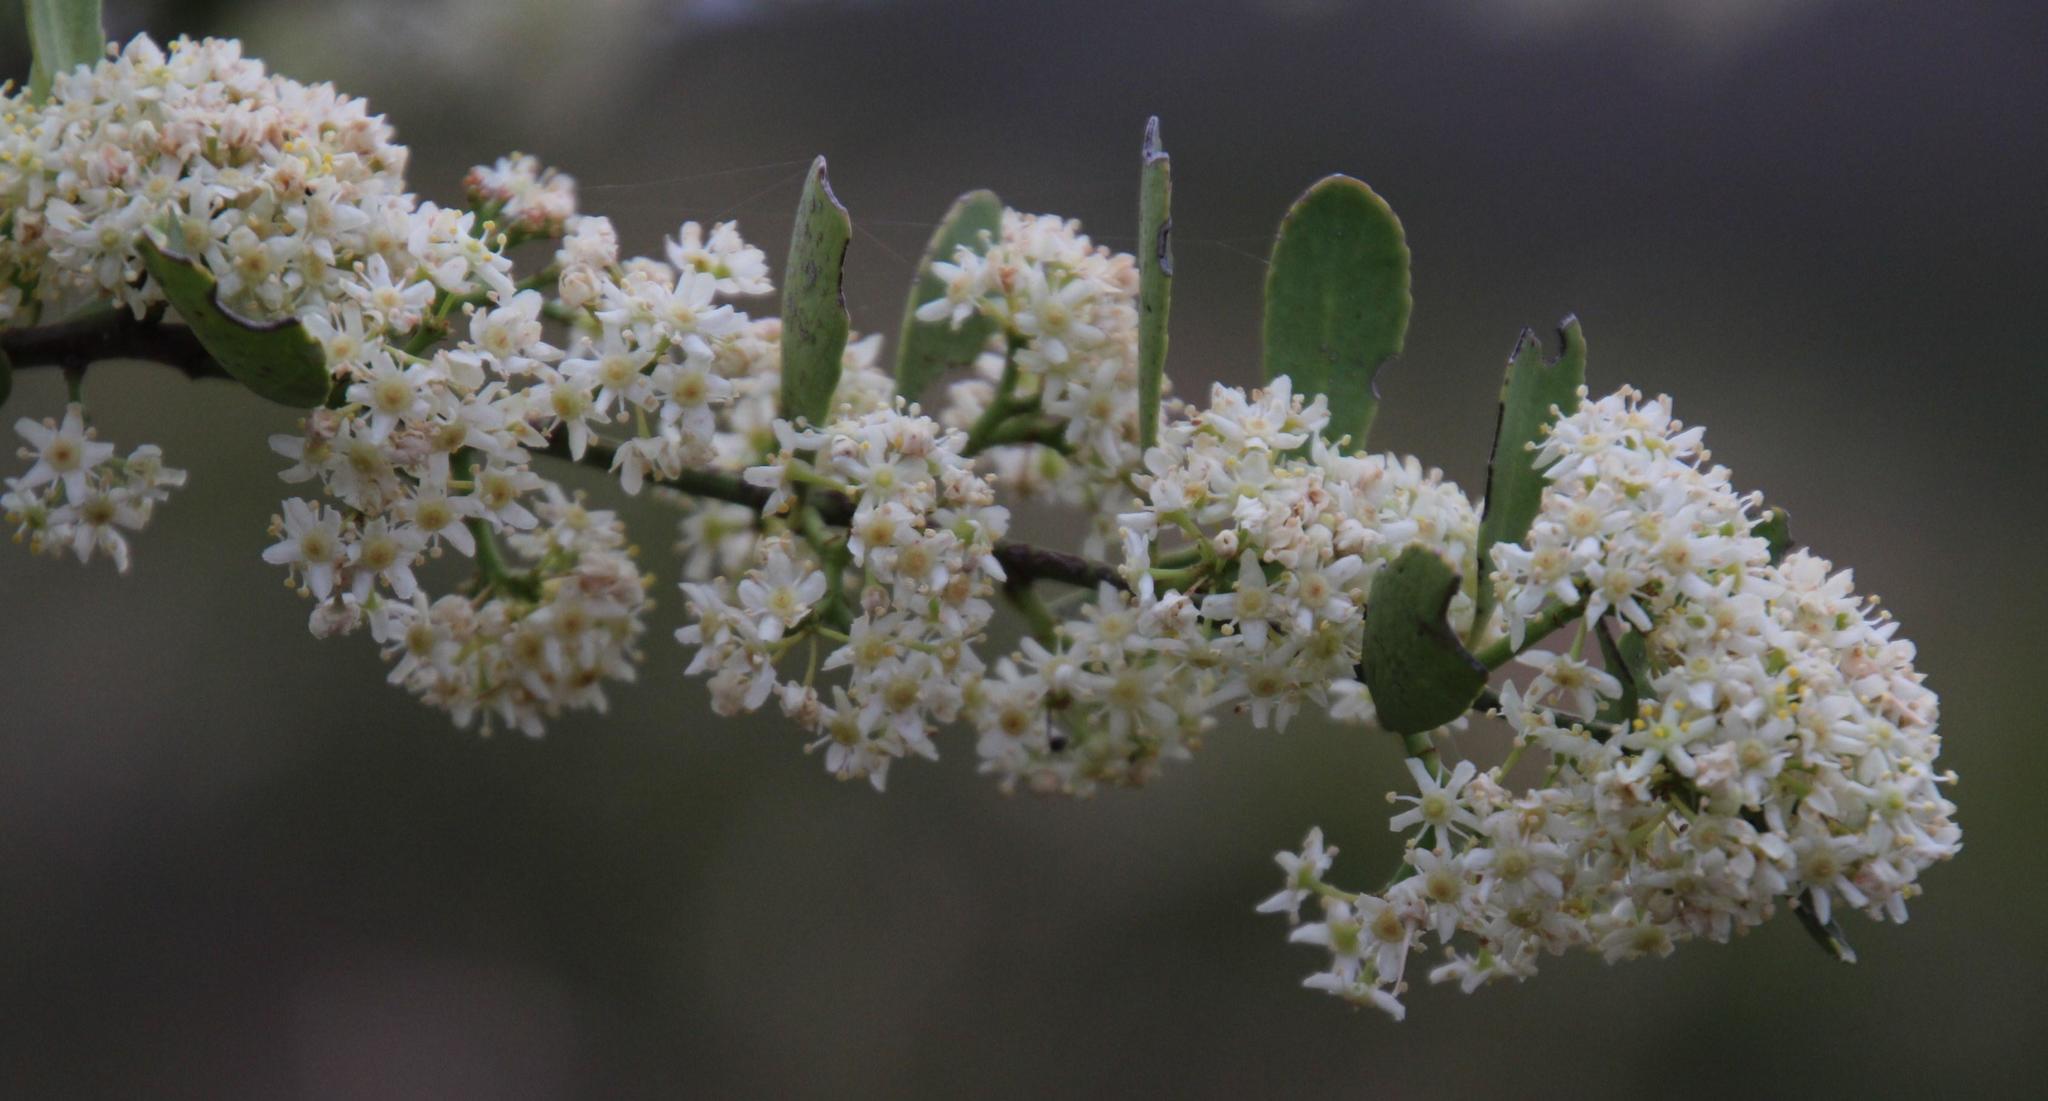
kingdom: Plantae
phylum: Tracheophyta
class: Magnoliopsida
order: Celastrales
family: Celastraceae
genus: Gymnosporia
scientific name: Gymnosporia buxifolia
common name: Common spike-thorn
